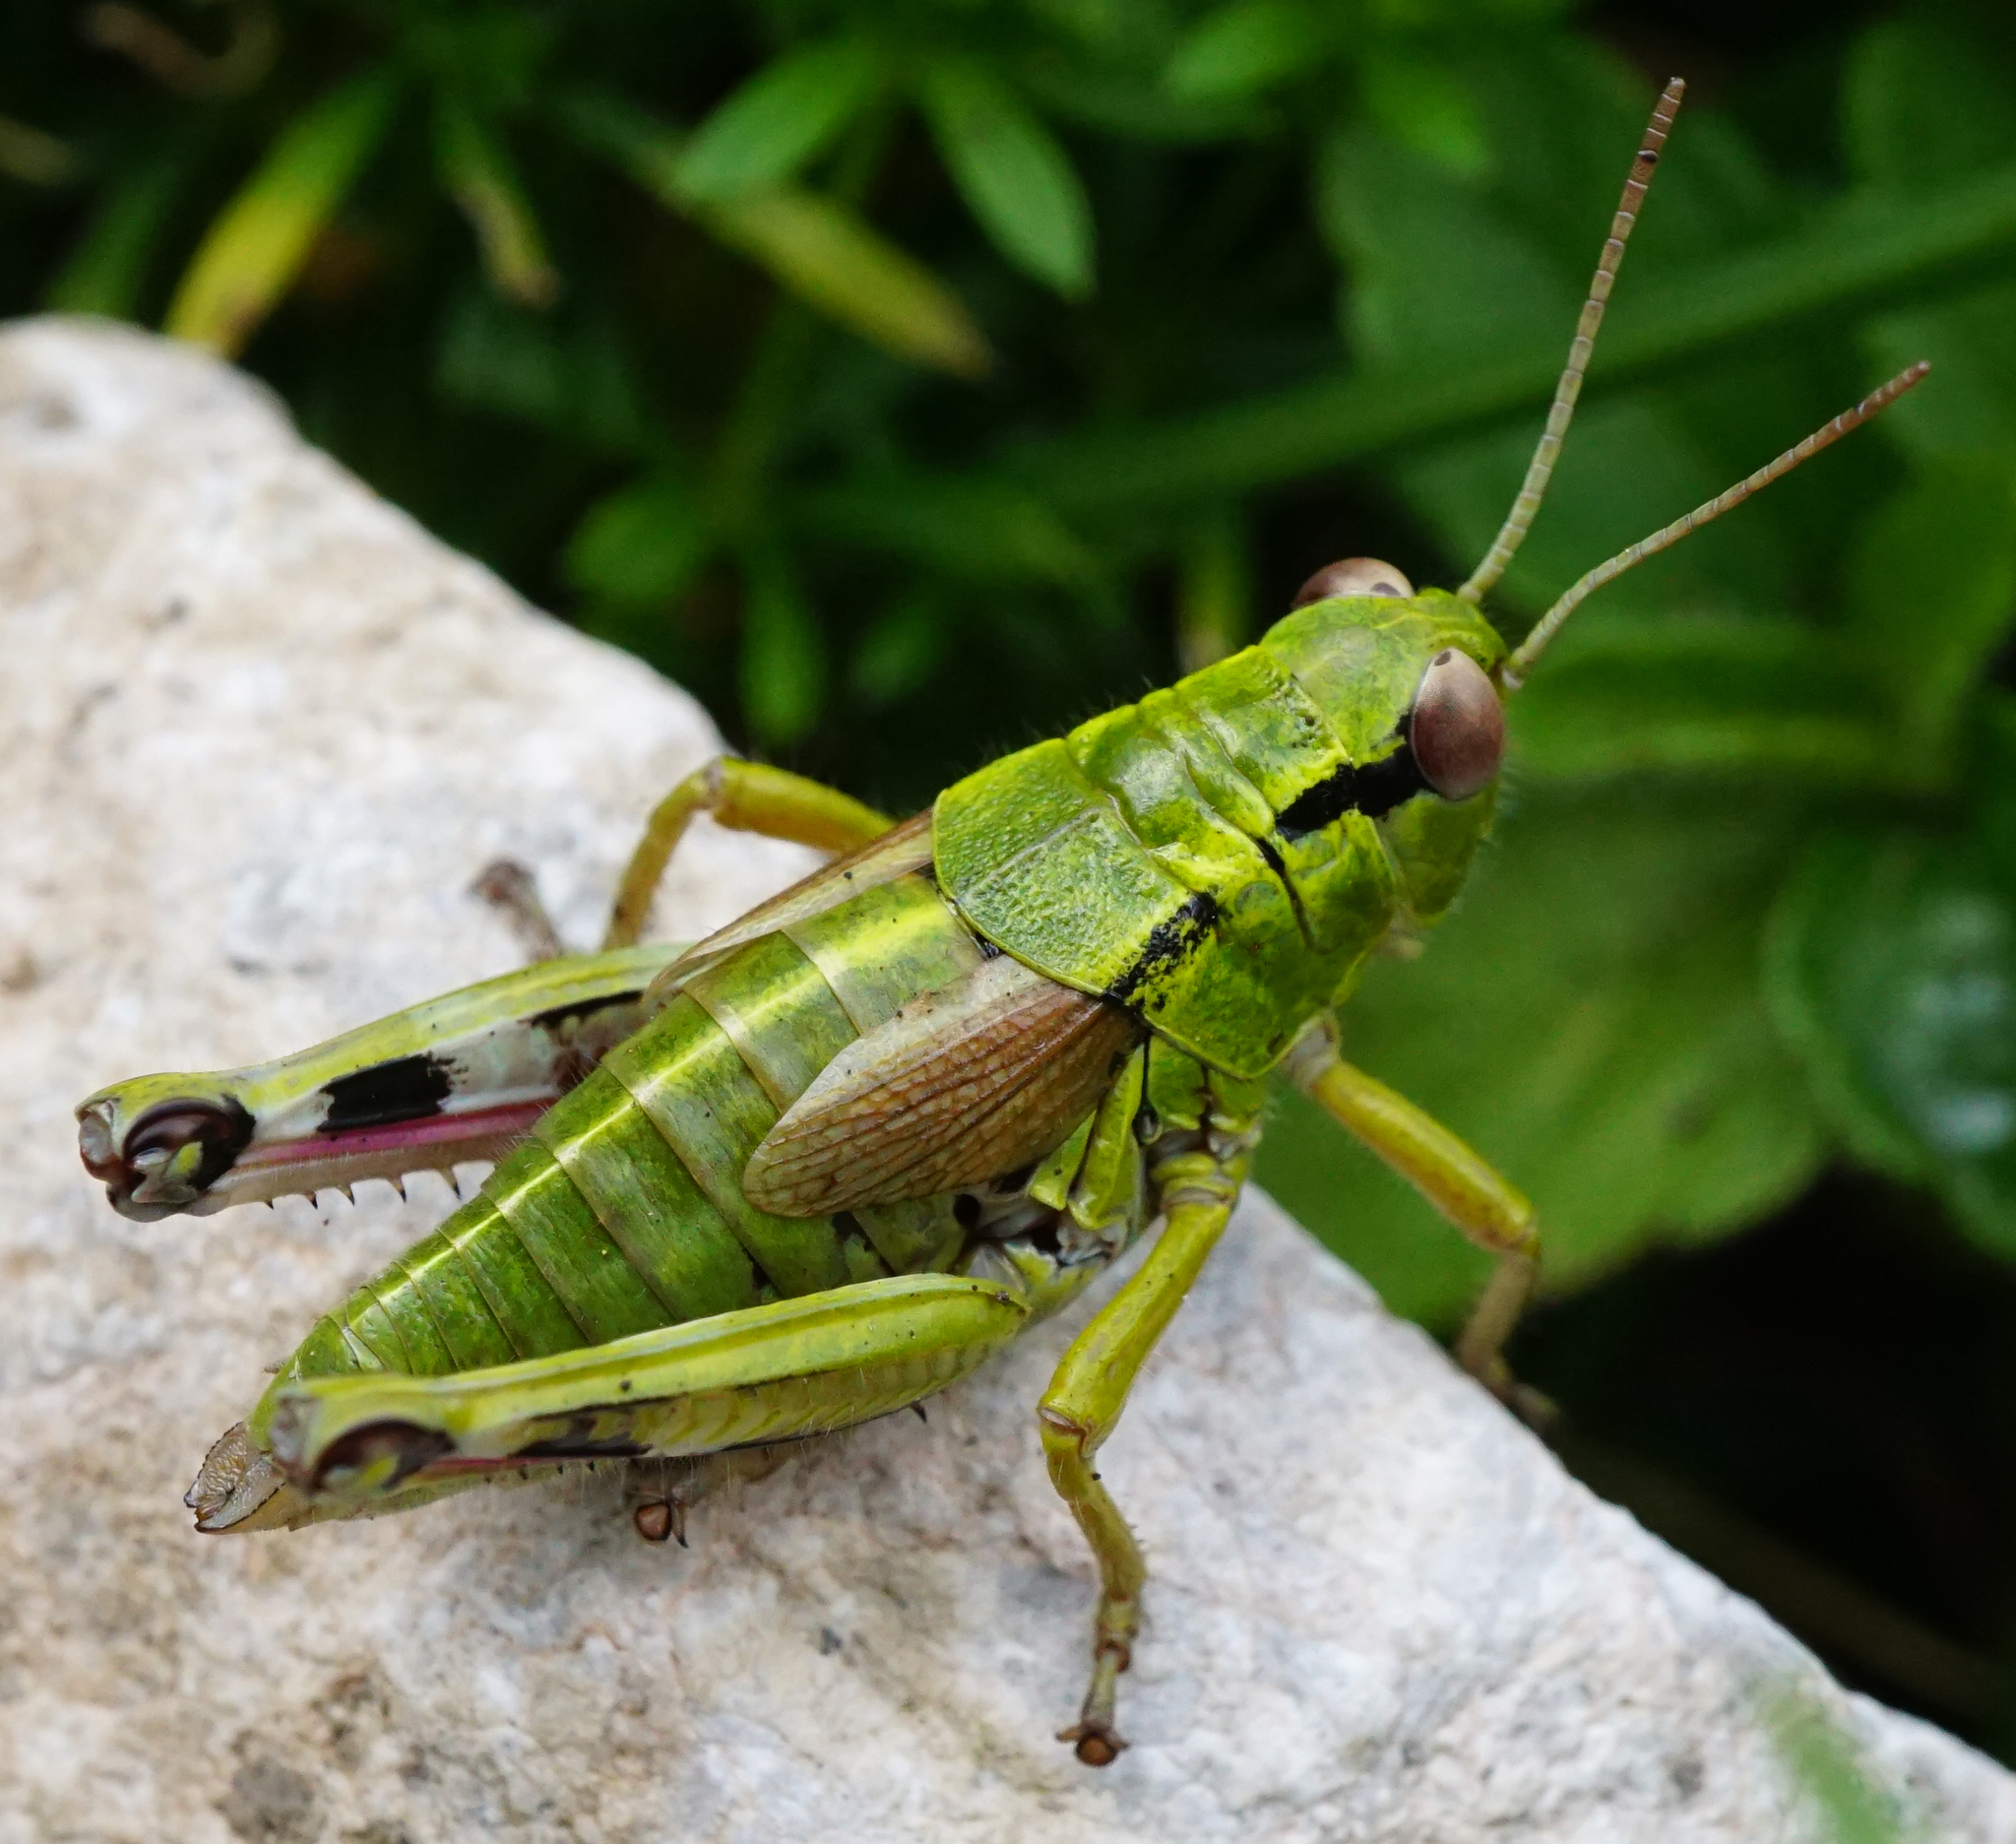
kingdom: Animalia
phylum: Arthropoda
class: Insecta
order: Orthoptera
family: Acrididae
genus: Miramella
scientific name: Miramella alpina
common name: Green mountain grasshopper
